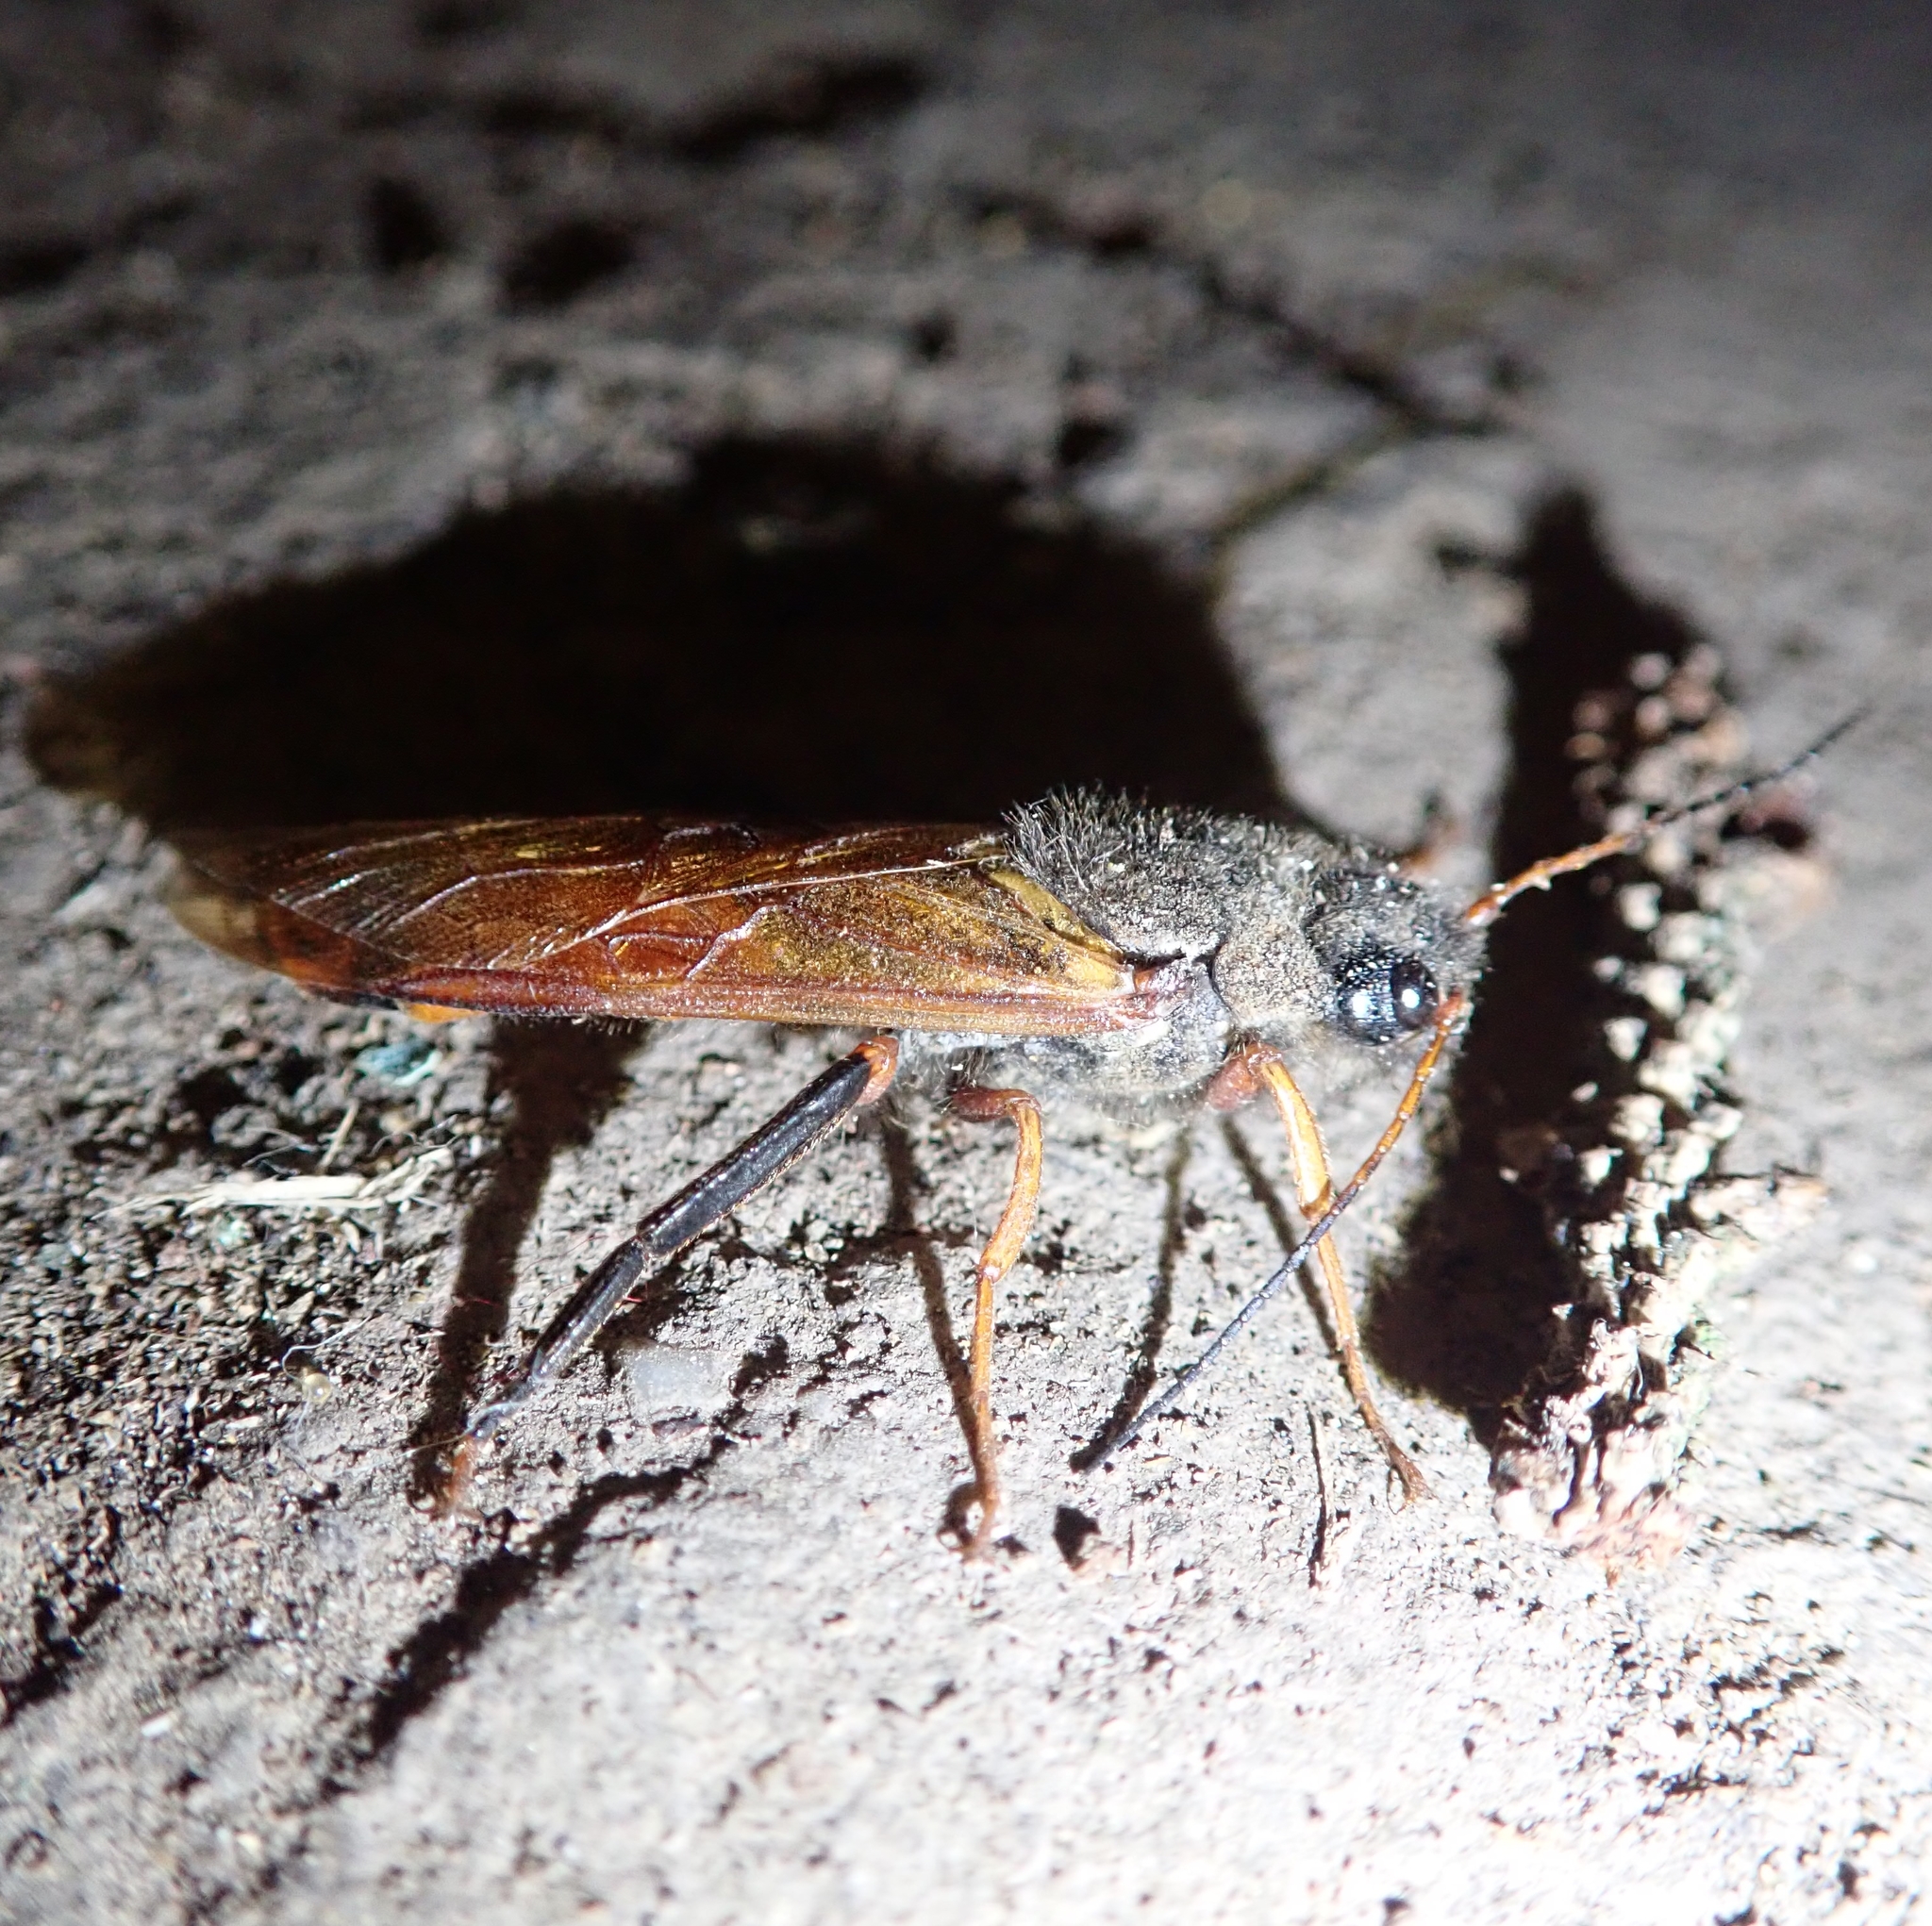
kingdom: Animalia
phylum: Arthropoda
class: Insecta
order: Hymenoptera
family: Siricidae
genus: Sirex
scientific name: Sirex juvencus
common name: Blue horntail
